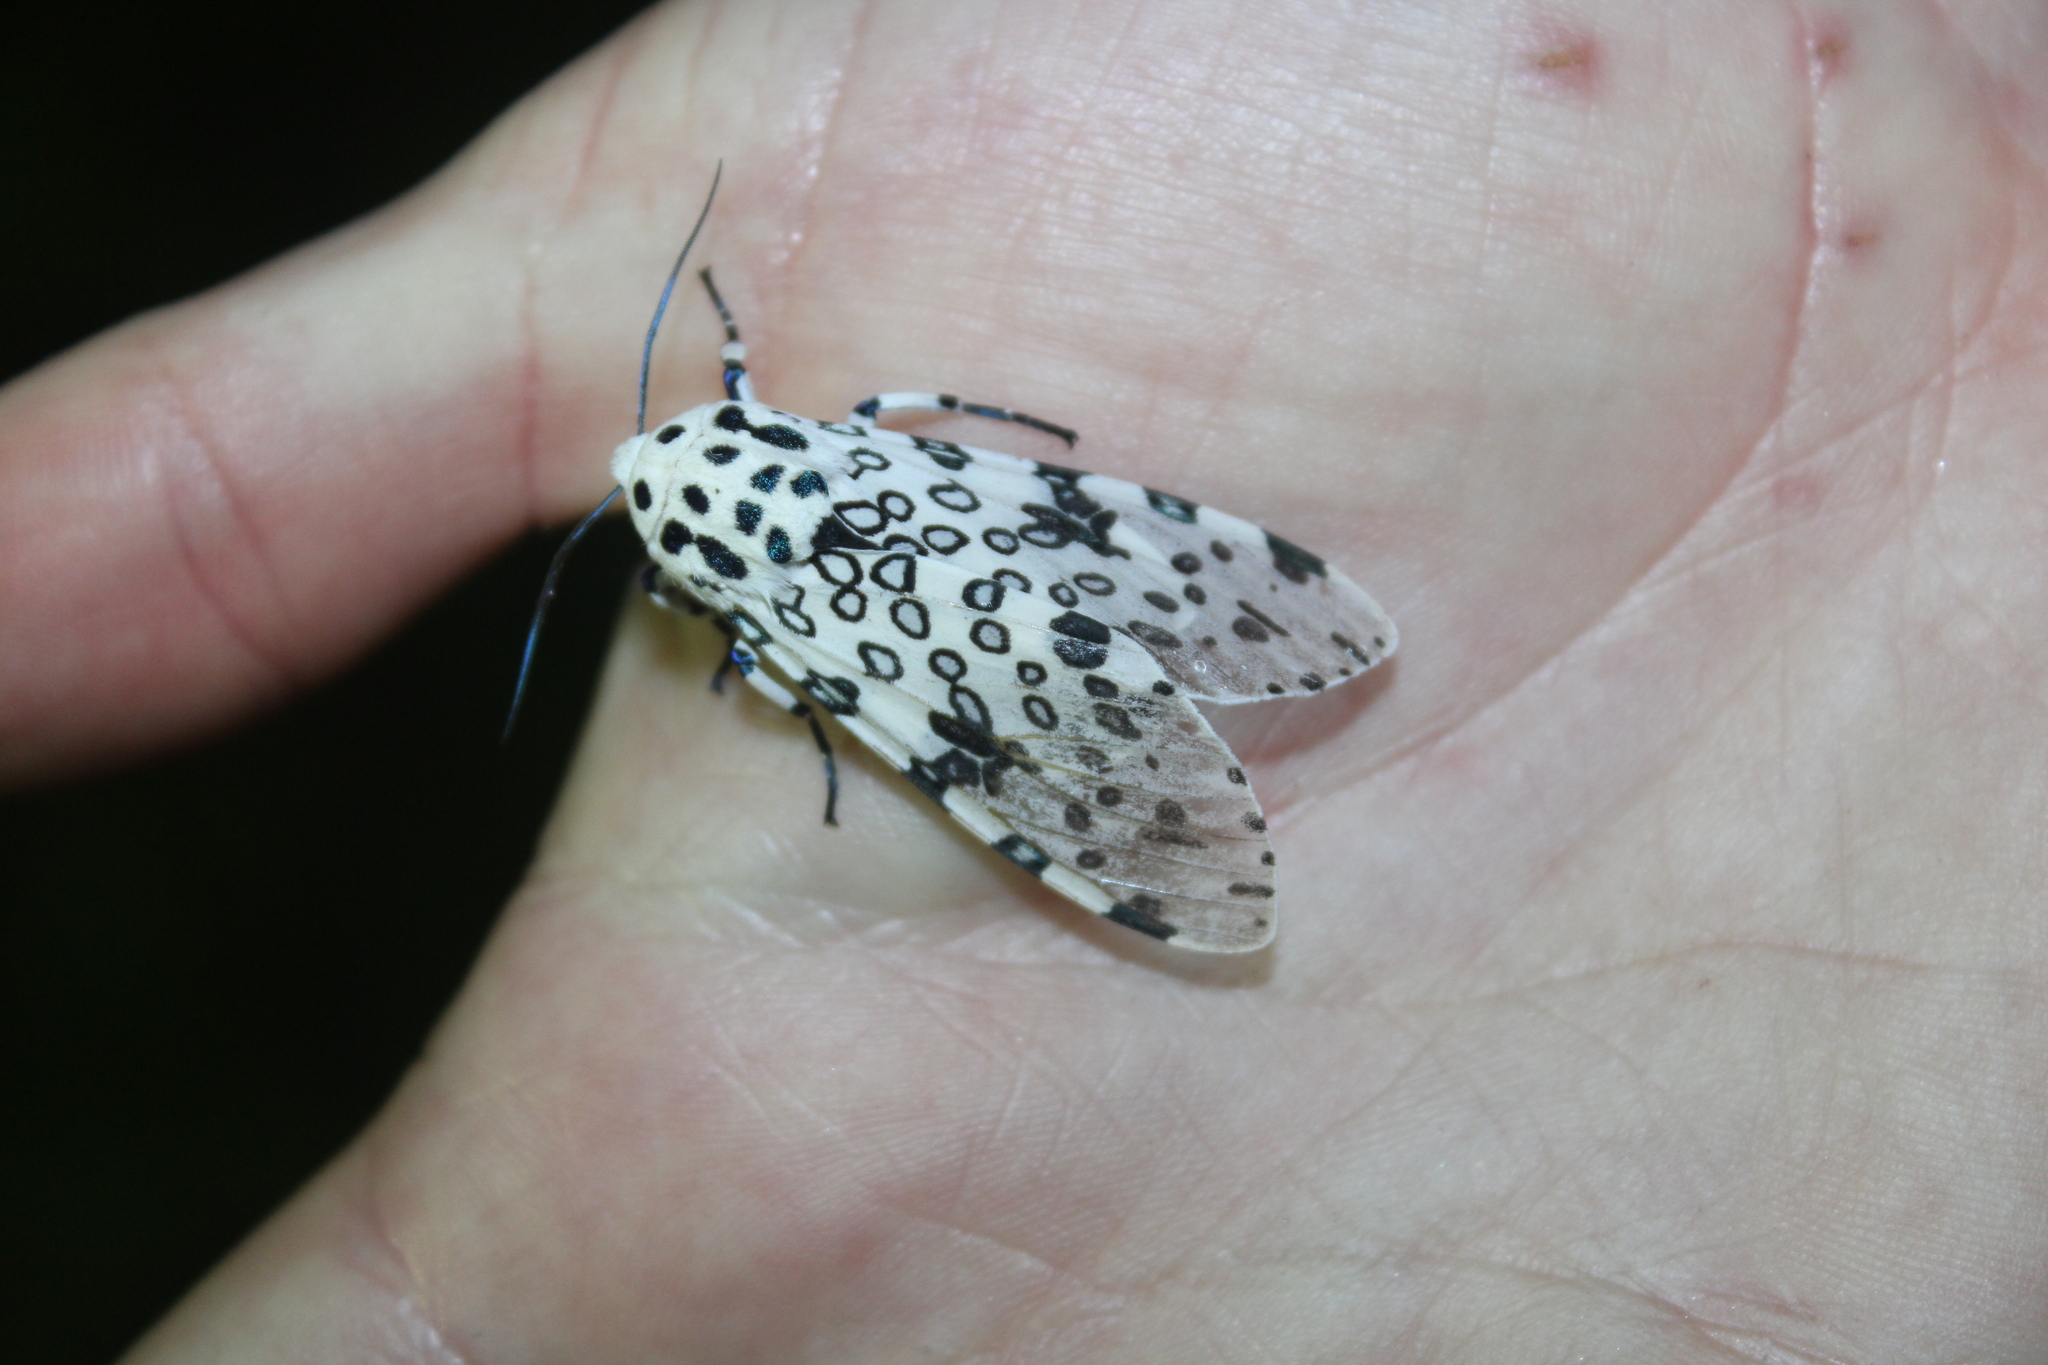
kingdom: Animalia
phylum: Arthropoda
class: Insecta
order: Lepidoptera
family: Erebidae
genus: Hypercompe
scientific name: Hypercompe scribonia
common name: Giant leopard moth
